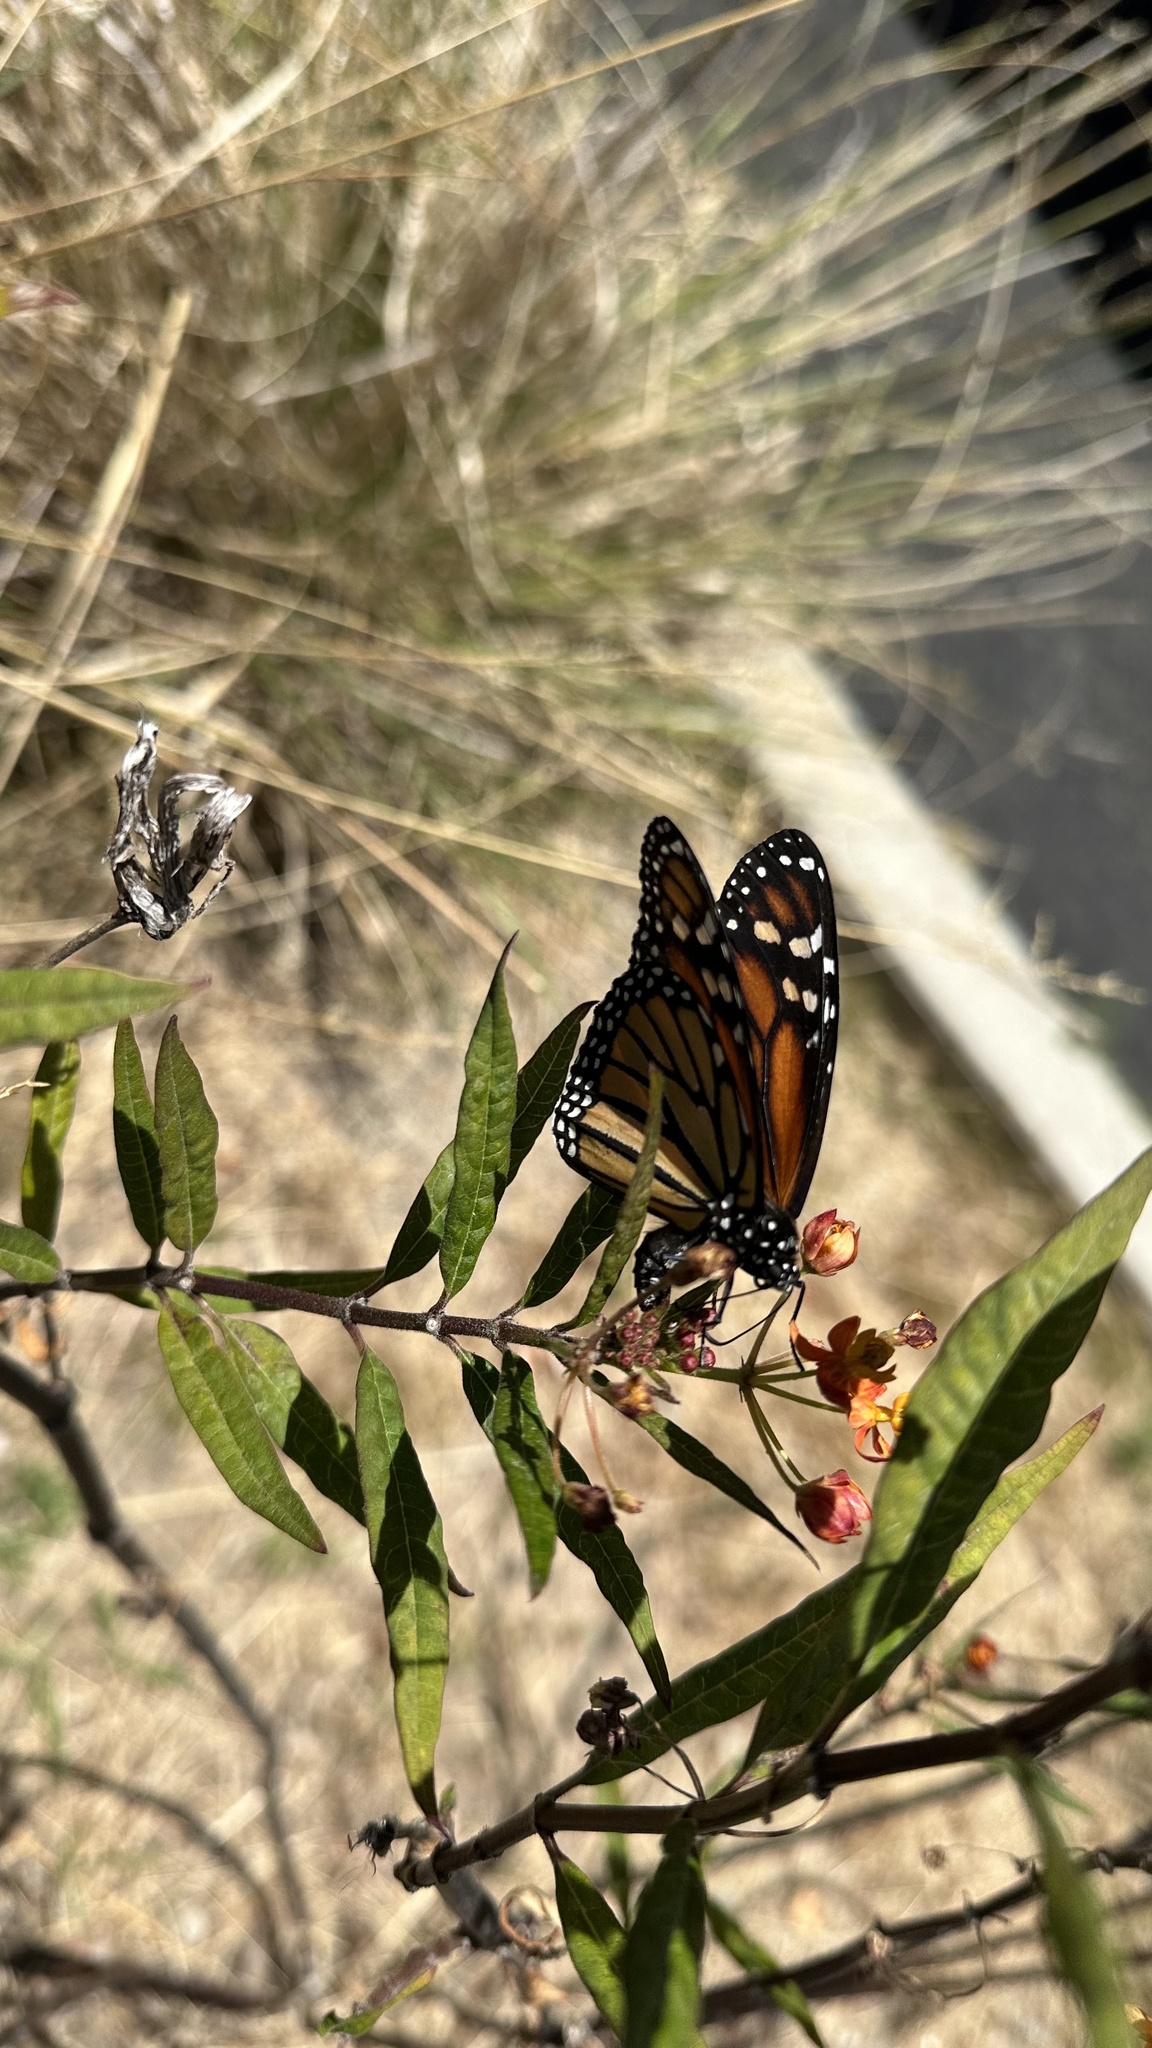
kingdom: Animalia
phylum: Arthropoda
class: Insecta
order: Lepidoptera
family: Nymphalidae
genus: Danaus
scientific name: Danaus plexippus
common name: Monarch
